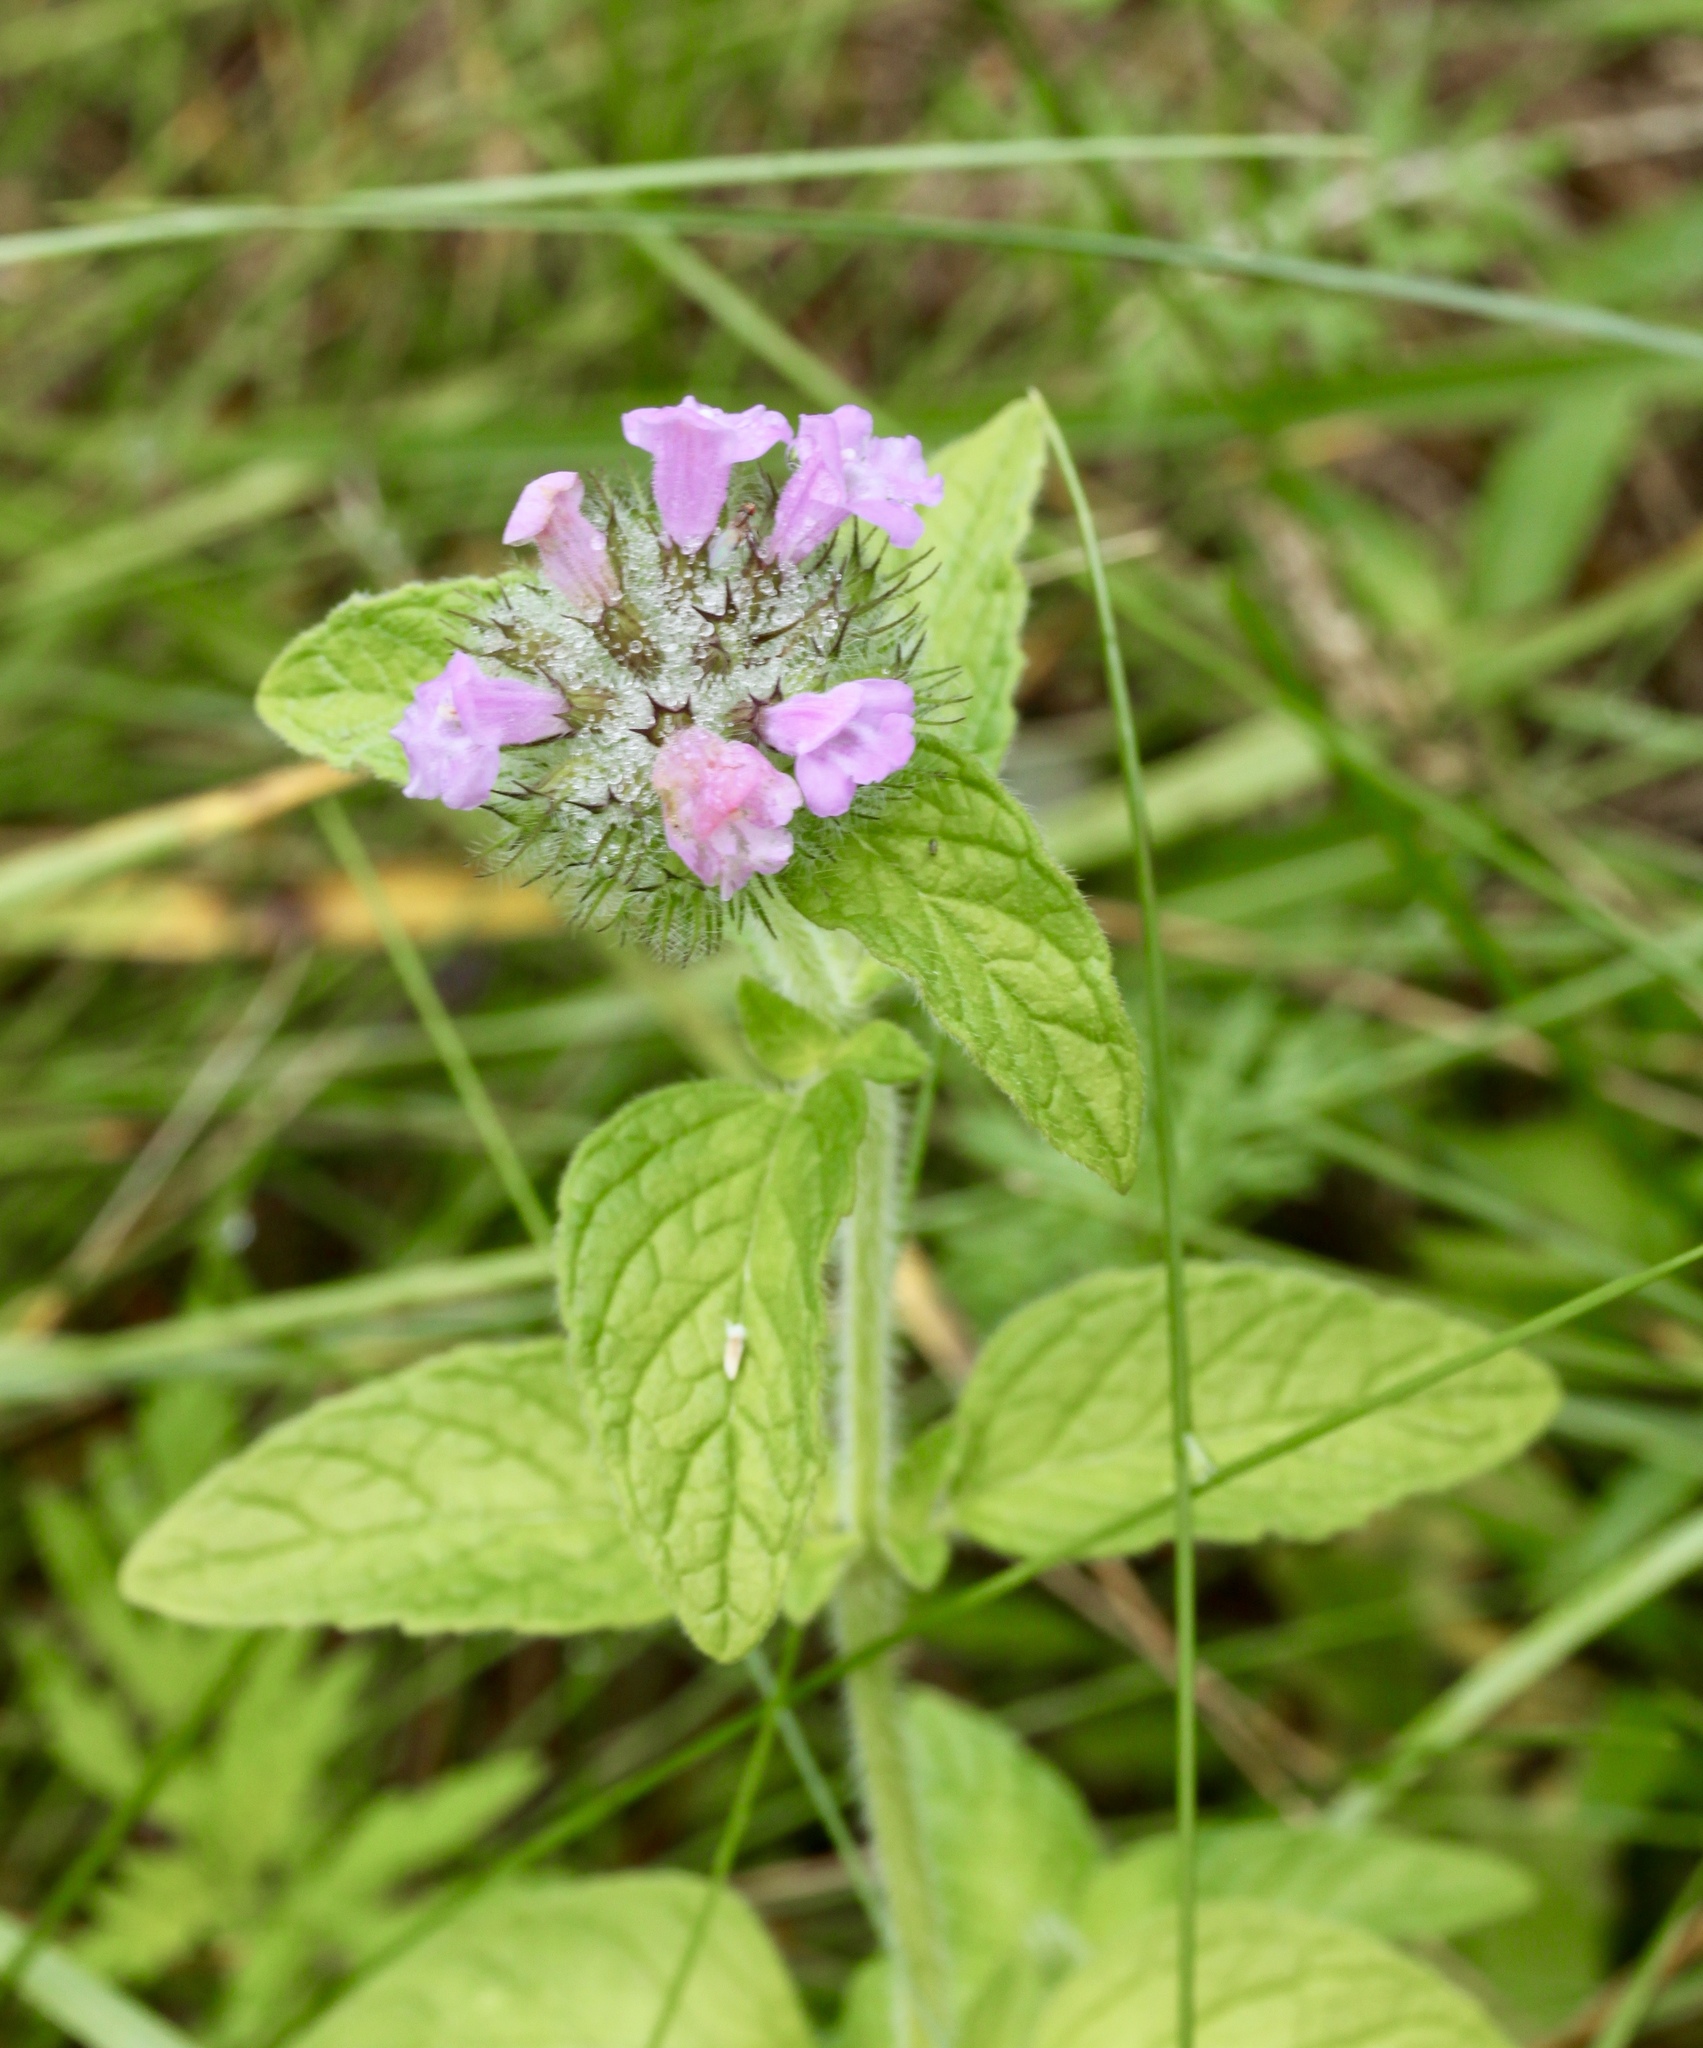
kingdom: Plantae
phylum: Tracheophyta
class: Magnoliopsida
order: Lamiales
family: Lamiaceae
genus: Clinopodium
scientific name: Clinopodium vulgare
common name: Wild basil
